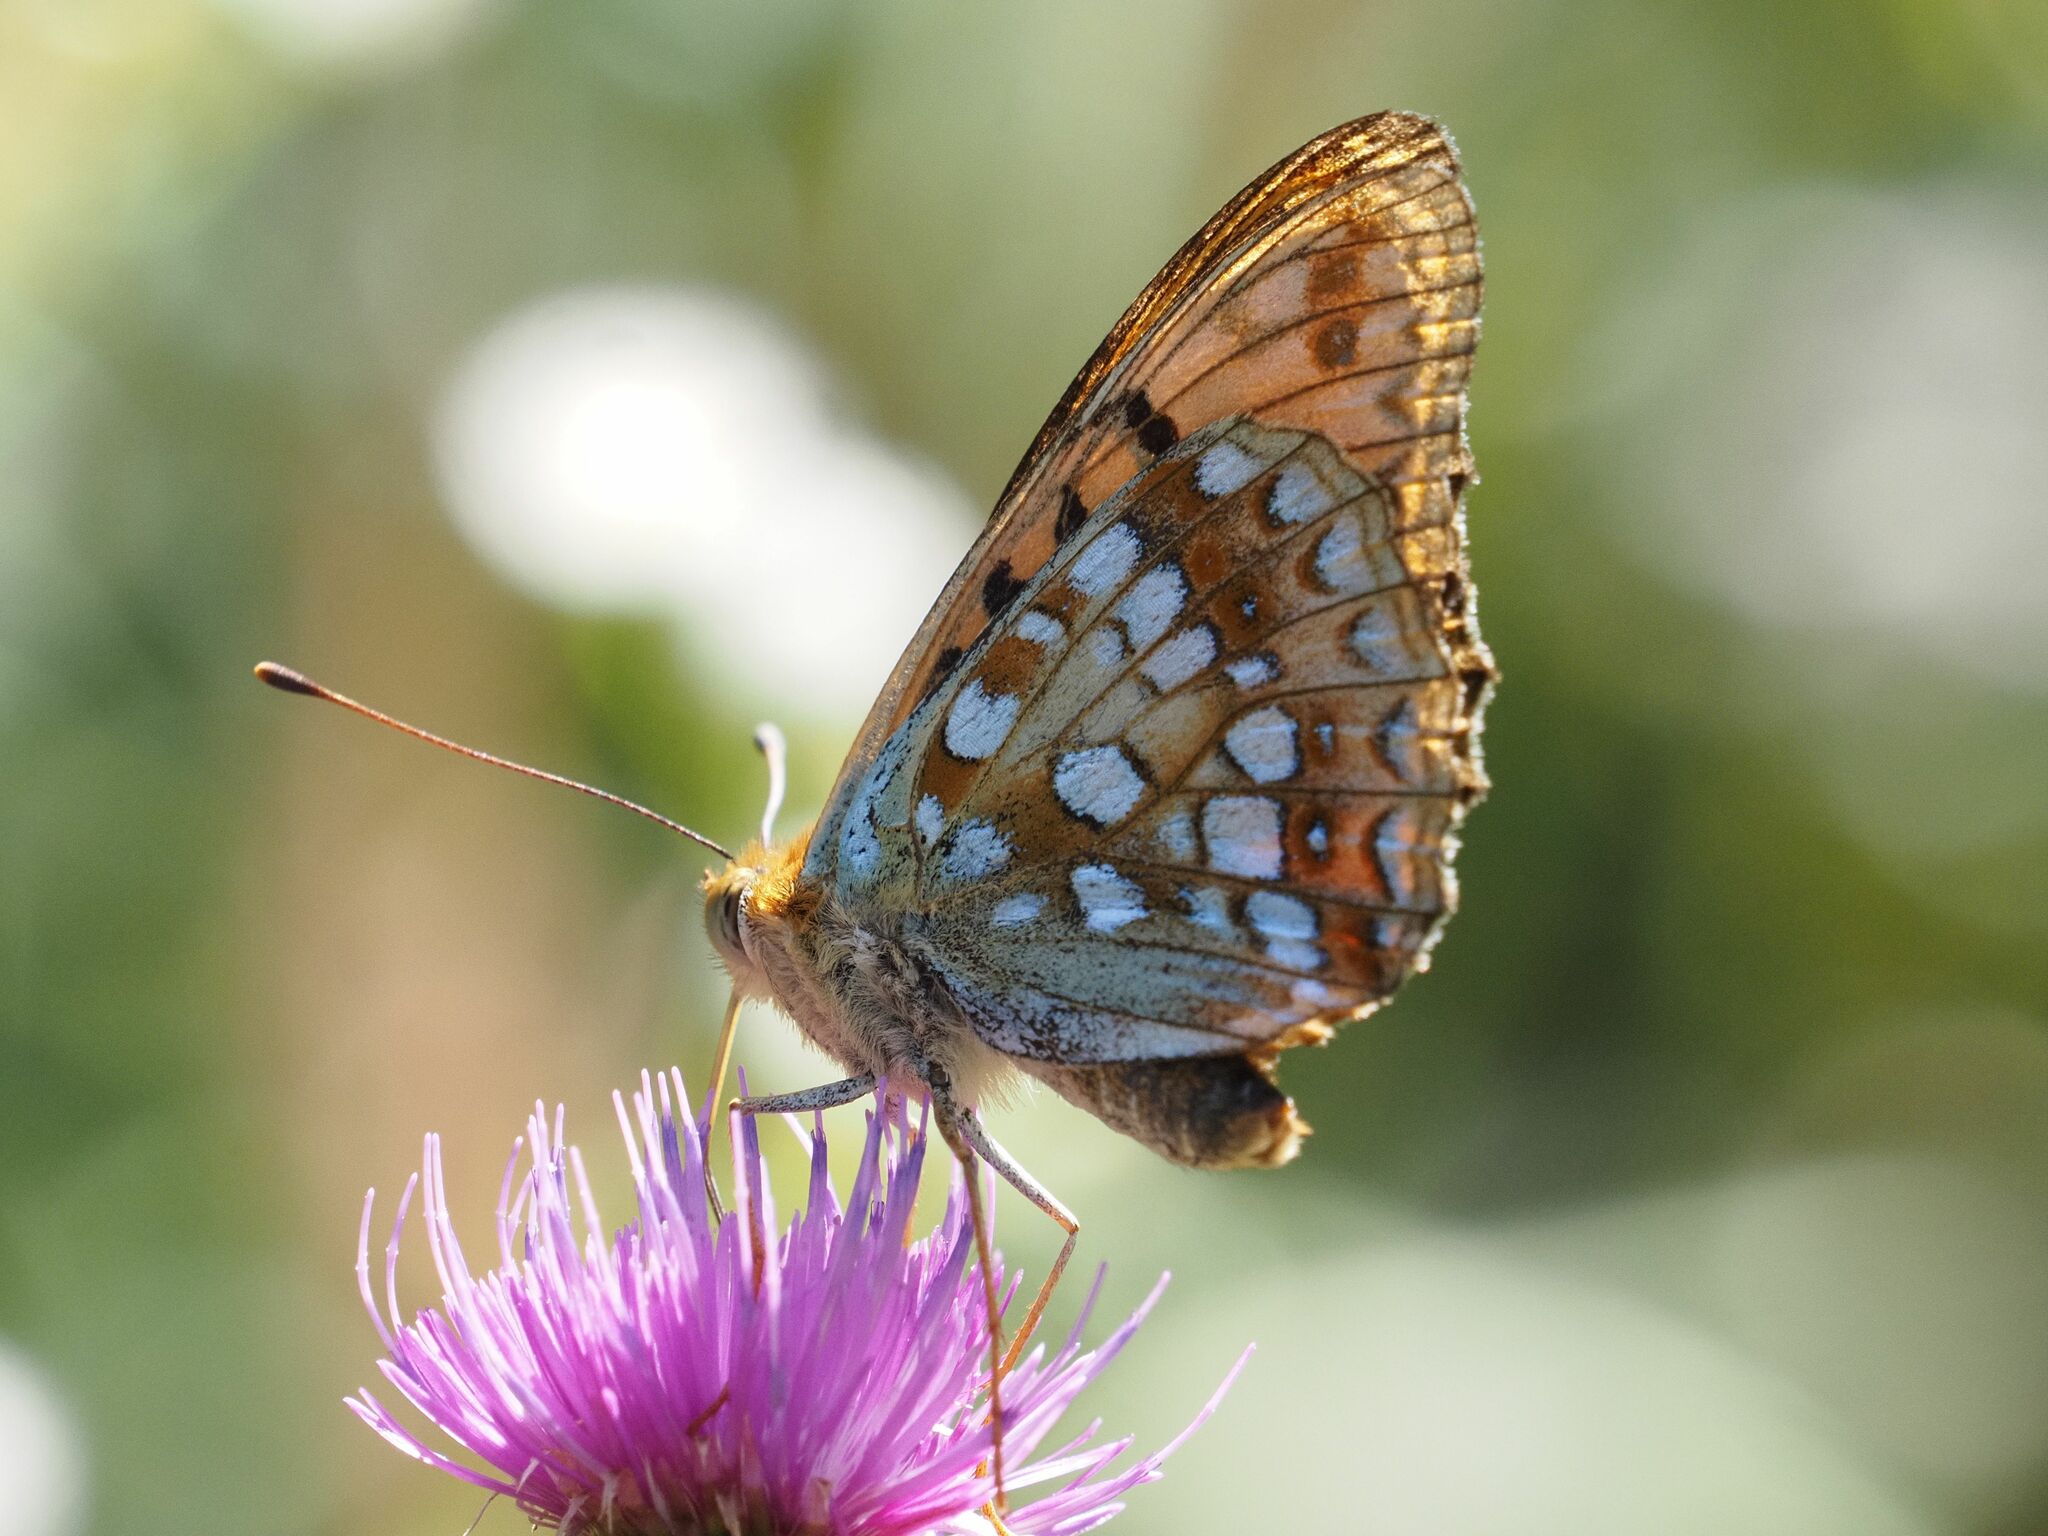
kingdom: Animalia
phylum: Arthropoda
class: Insecta
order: Lepidoptera
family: Nymphalidae
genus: Fabriciana
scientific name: Fabriciana adippe
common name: High brown fritillary
